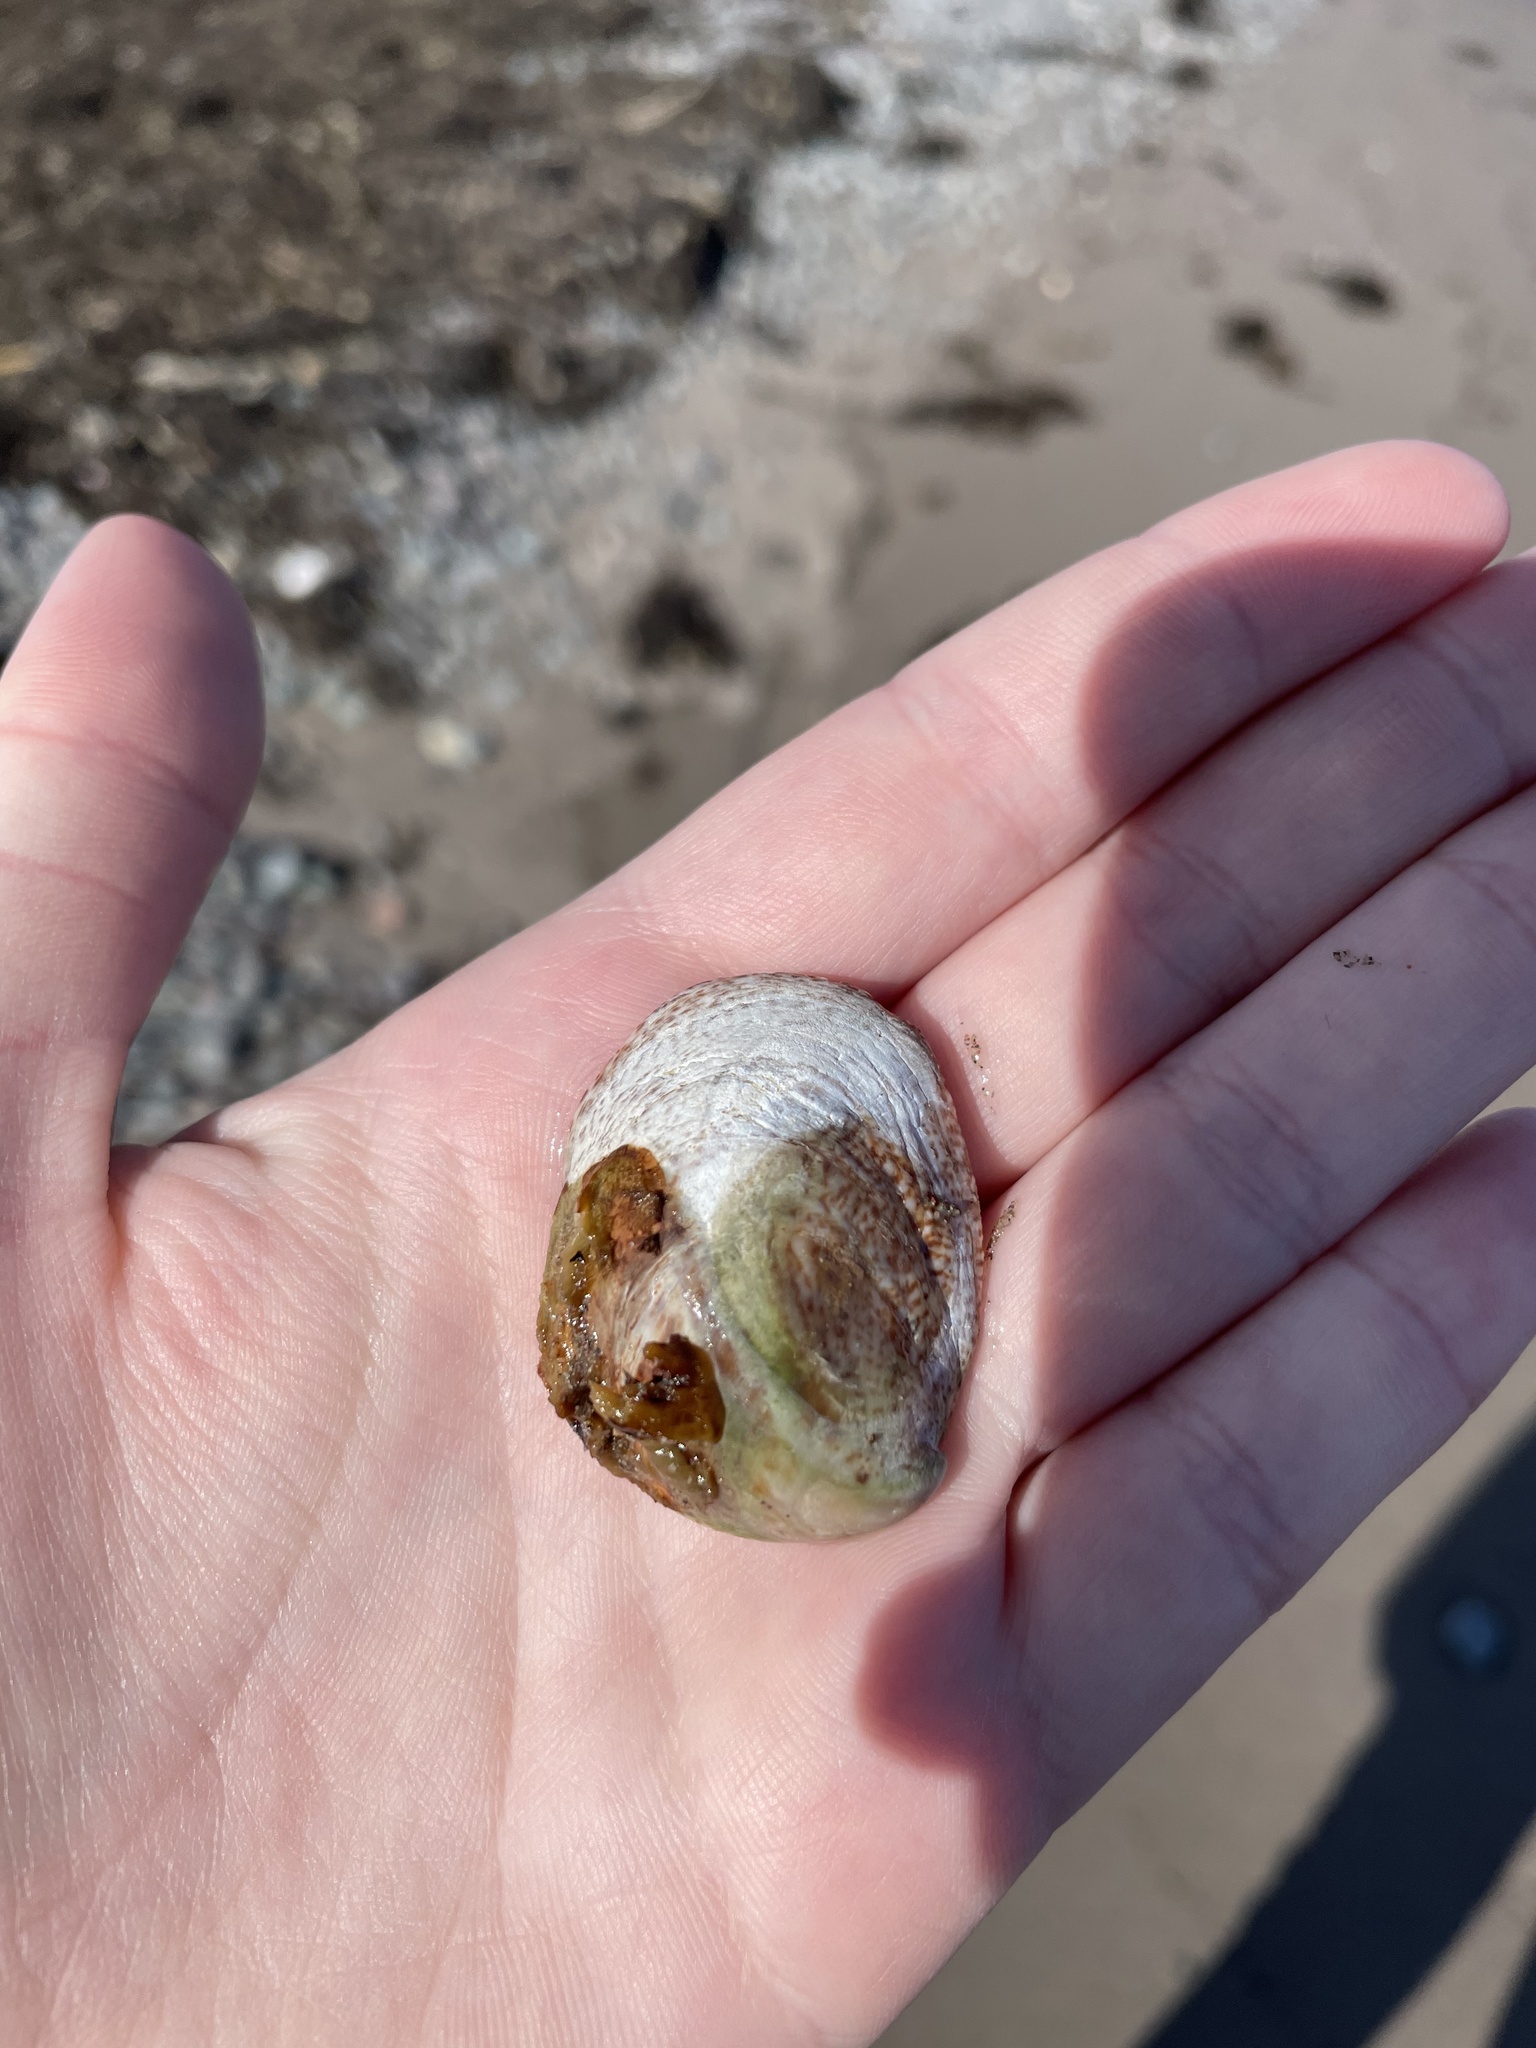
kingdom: Animalia
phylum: Mollusca
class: Gastropoda
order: Littorinimorpha
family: Calyptraeidae
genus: Crepidula
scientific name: Crepidula fornicata
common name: Slipper limpet
